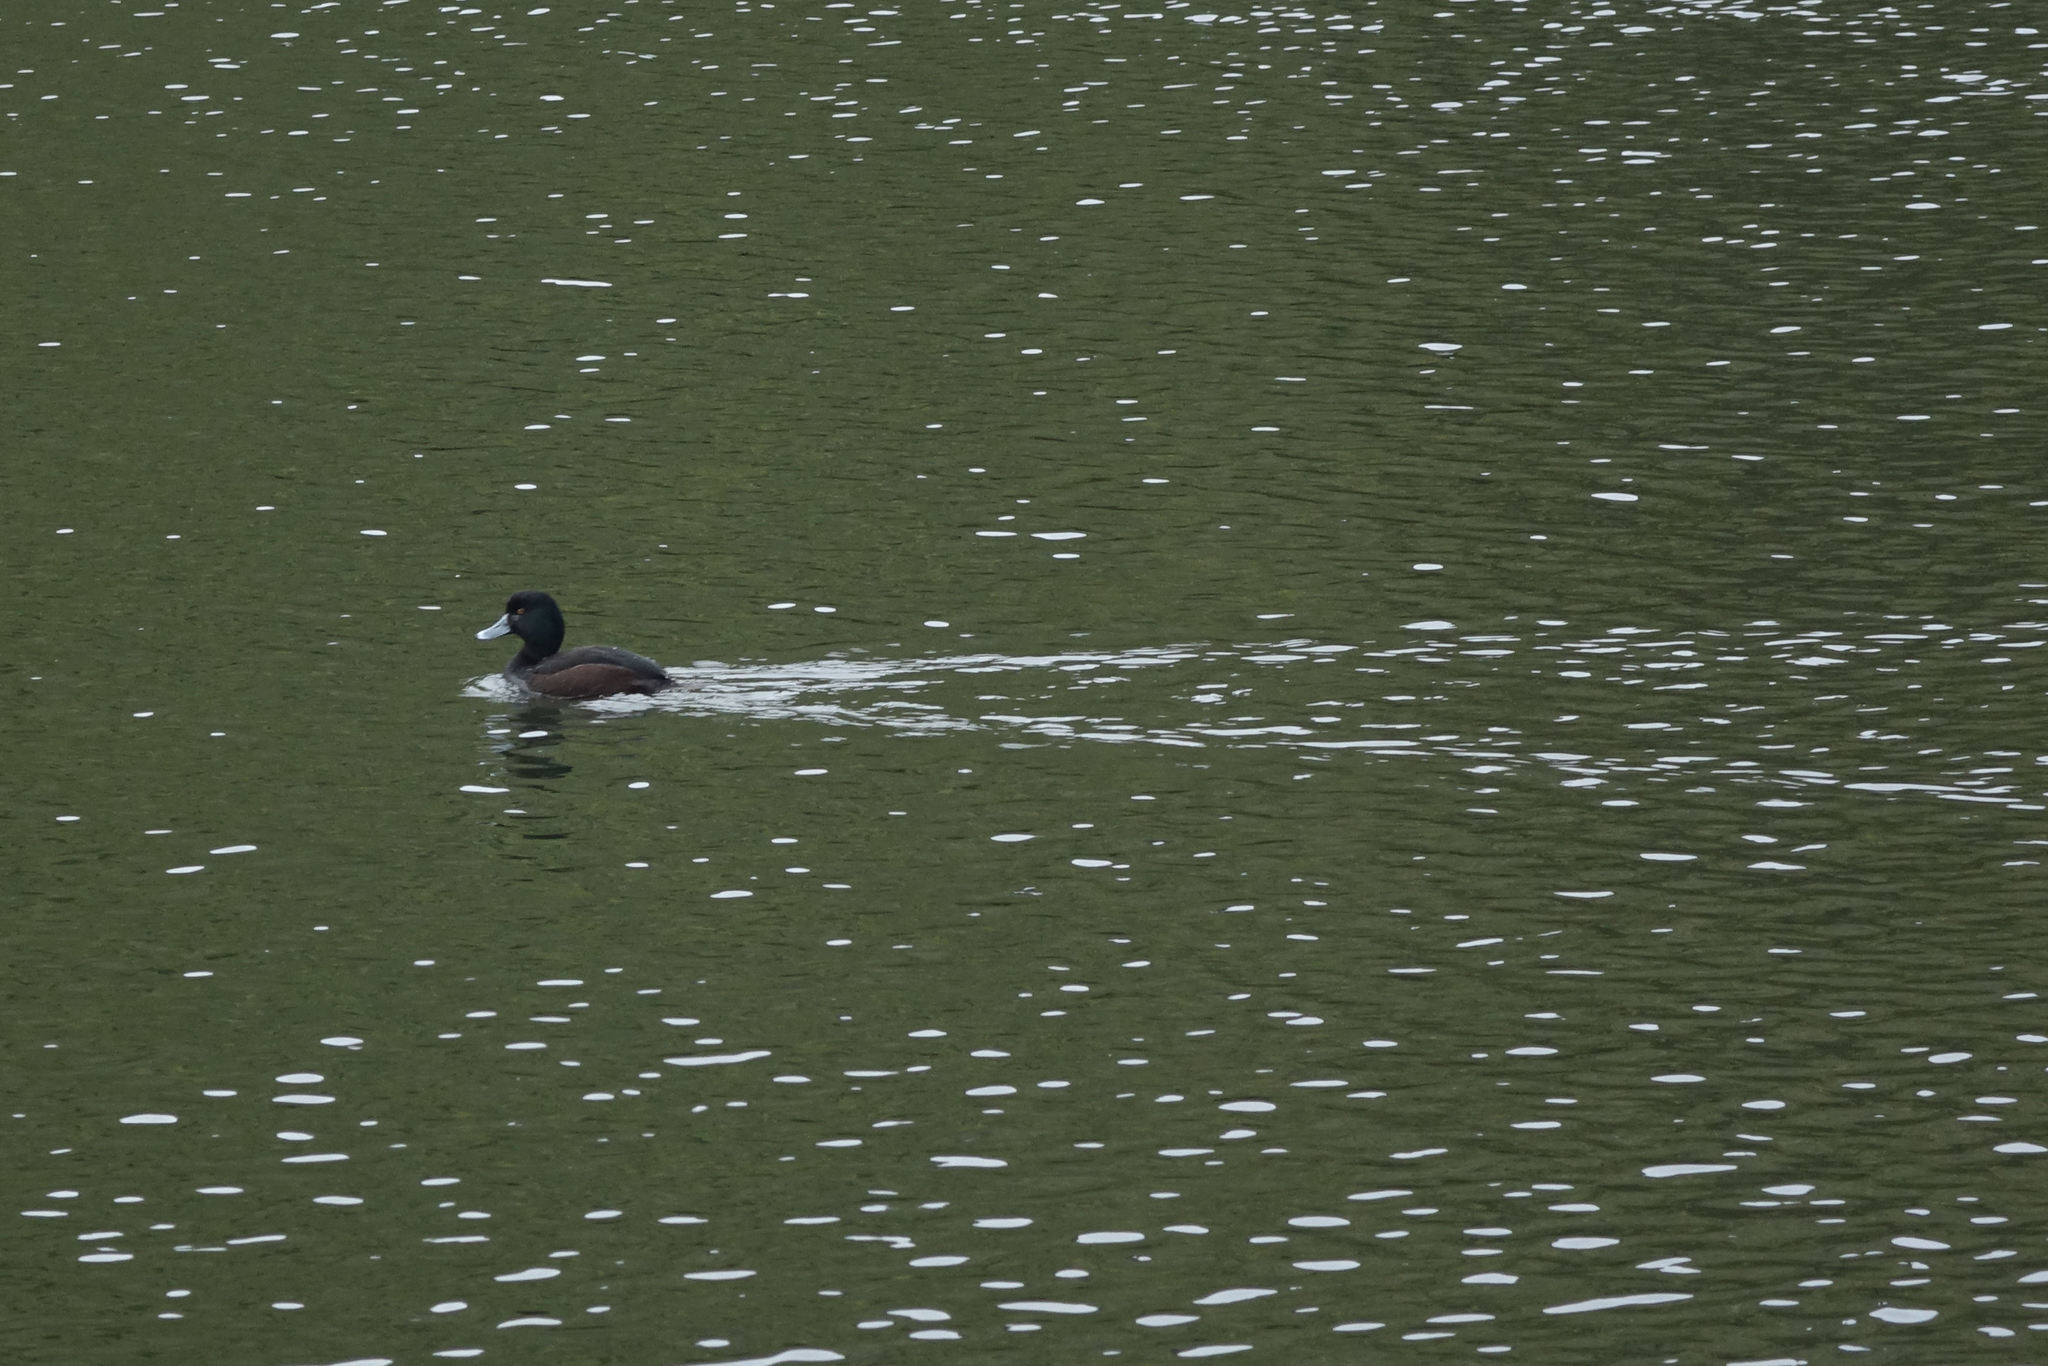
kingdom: Animalia
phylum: Chordata
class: Aves
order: Anseriformes
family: Anatidae
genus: Aythya
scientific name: Aythya novaeseelandiae
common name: New zealand scaup
